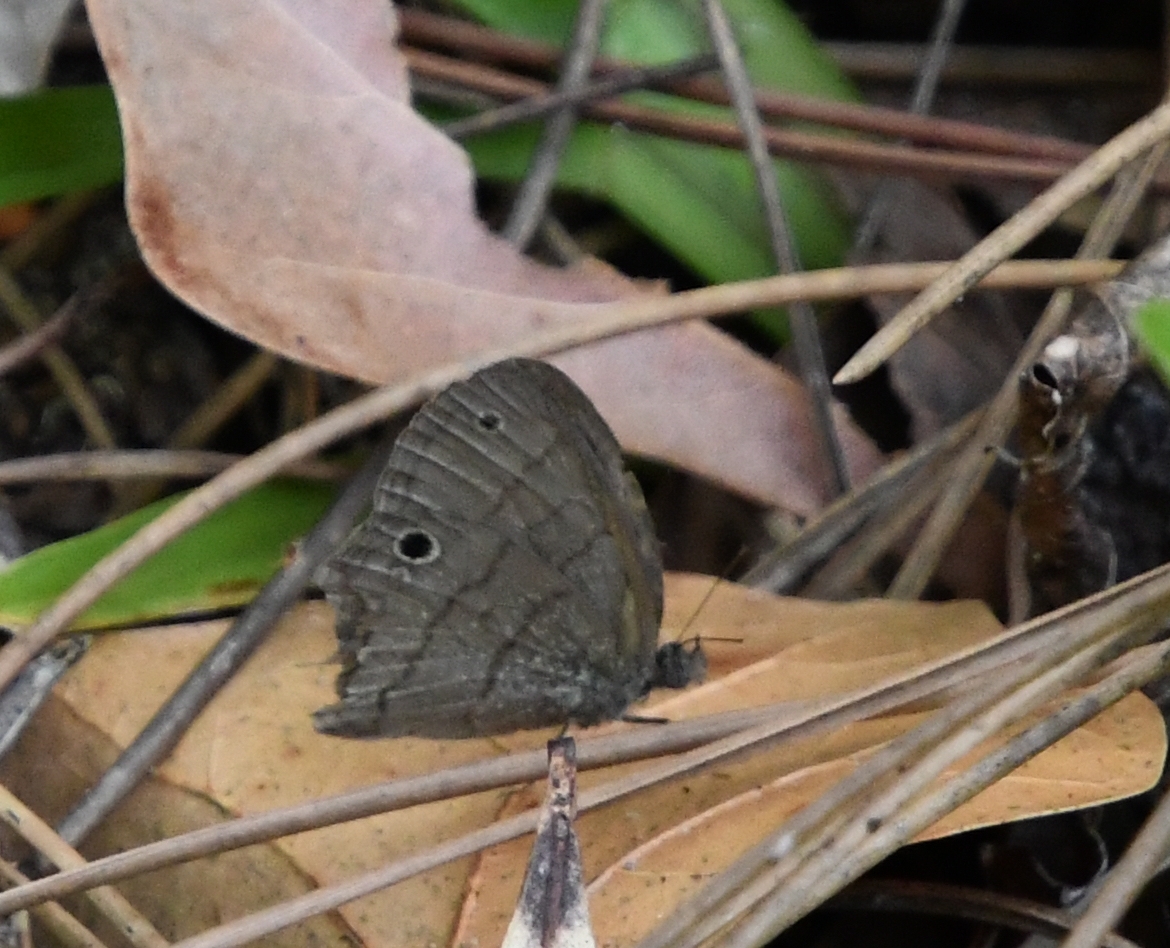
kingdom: Animalia
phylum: Arthropoda
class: Insecta
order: Lepidoptera
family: Nymphalidae
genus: Hermeuptychia
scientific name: Hermeuptychia hermes
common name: Hermes satyr
